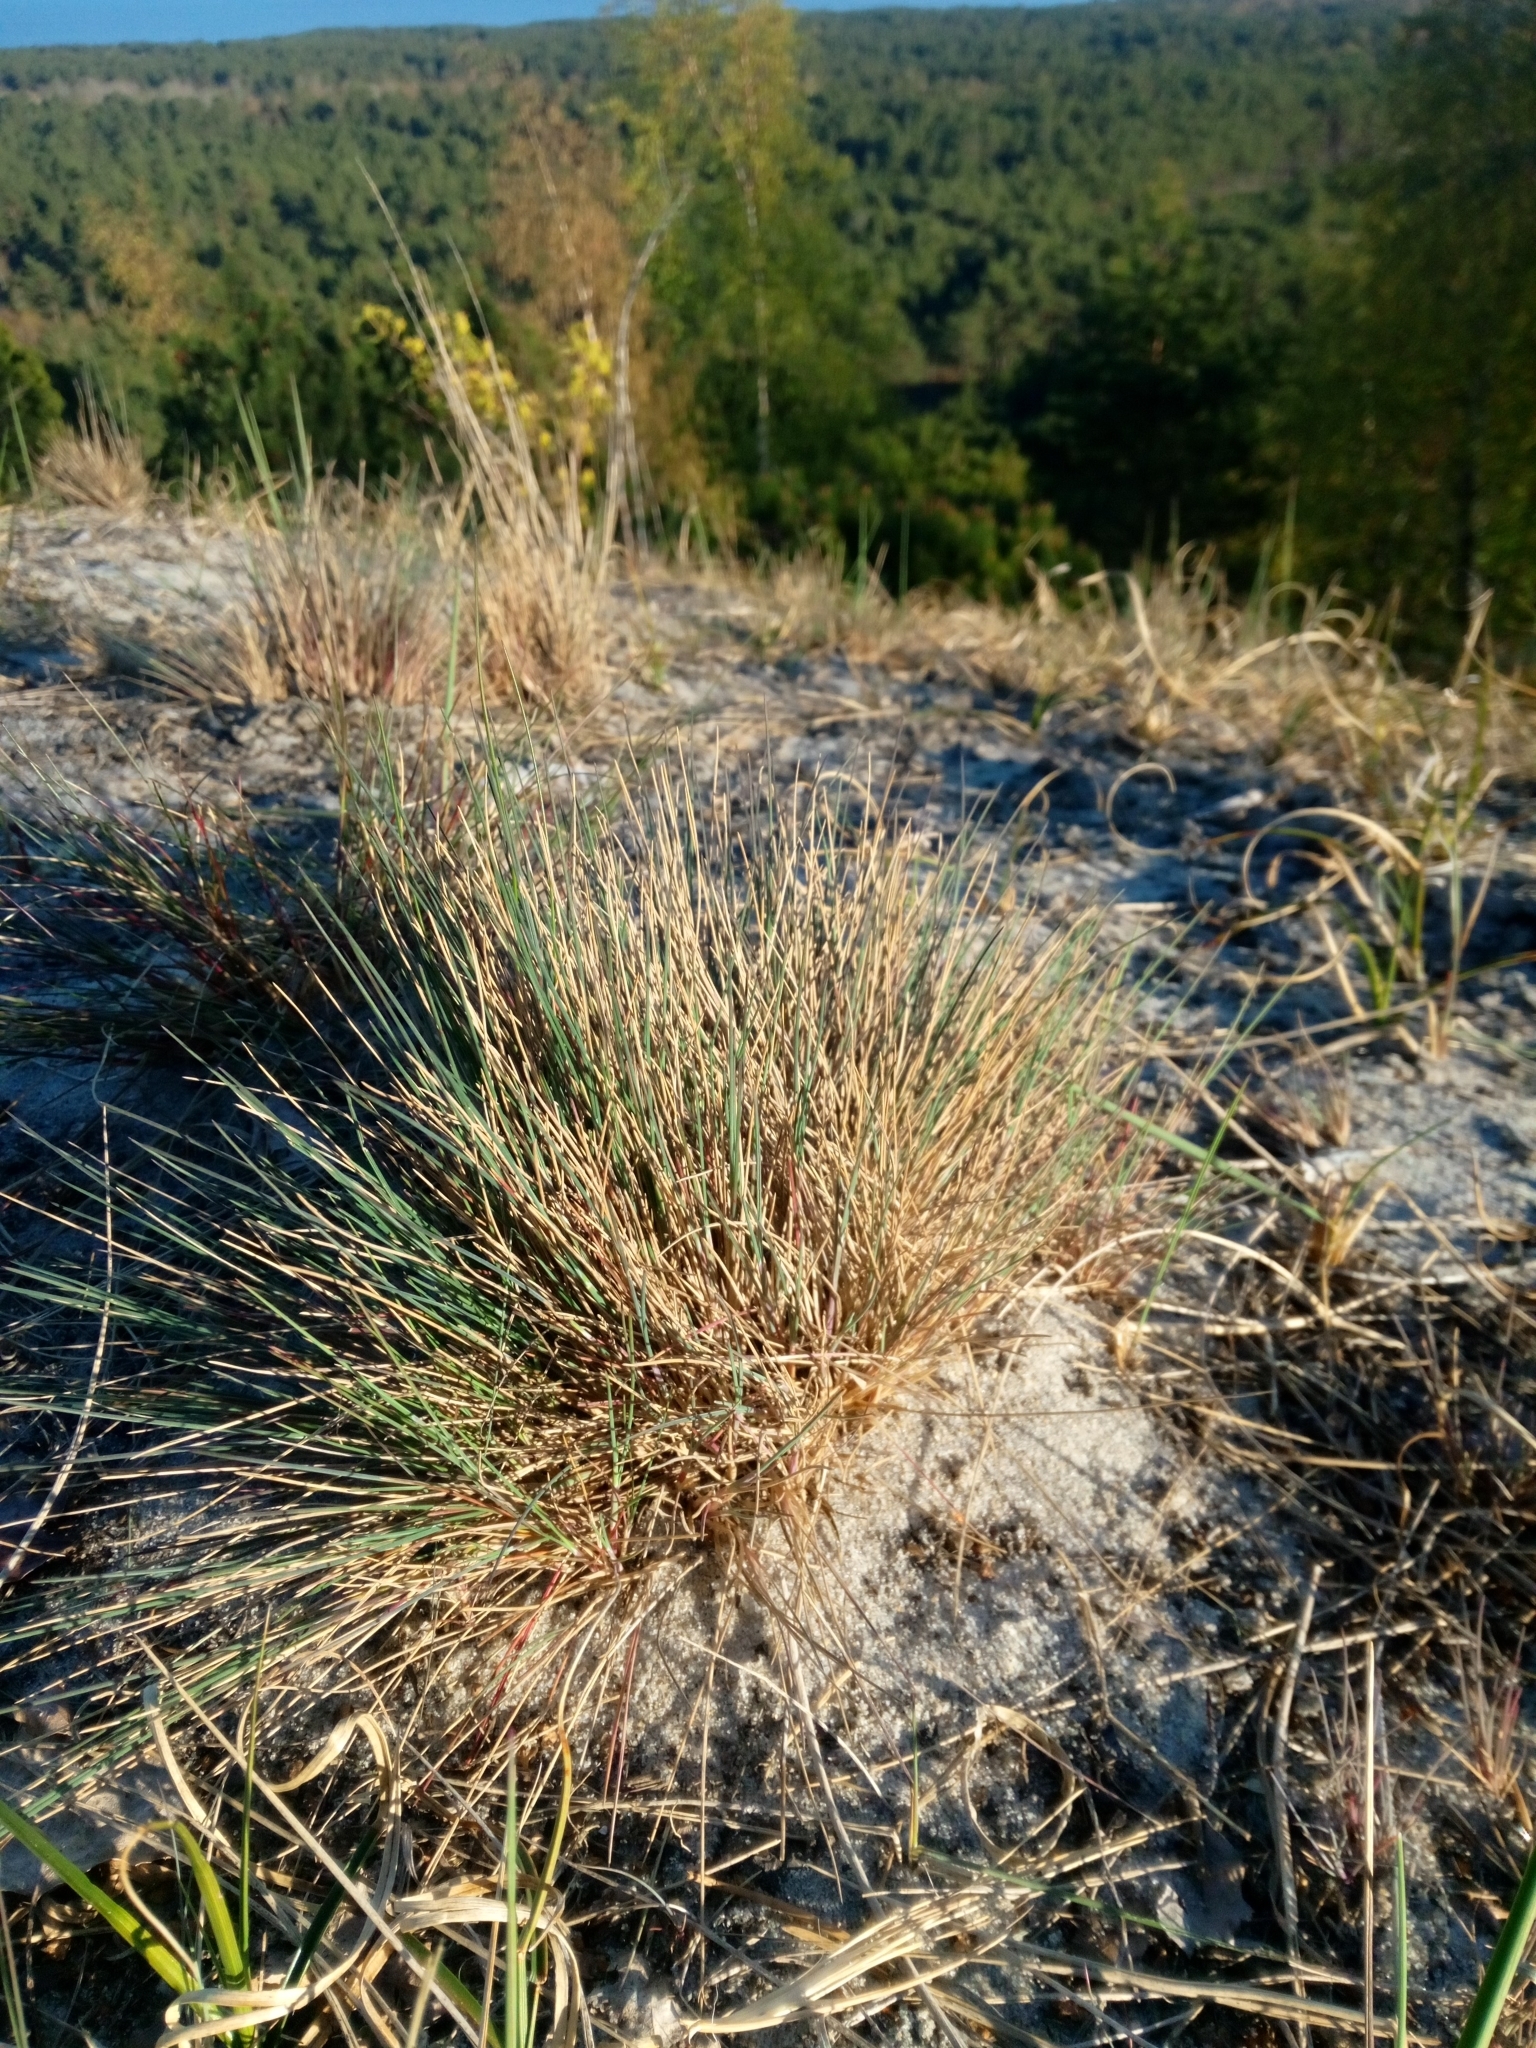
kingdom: Plantae
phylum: Tracheophyta
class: Liliopsida
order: Poales
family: Poaceae
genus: Corynephorus
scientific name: Corynephorus canescens
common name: Grey hair-grass
